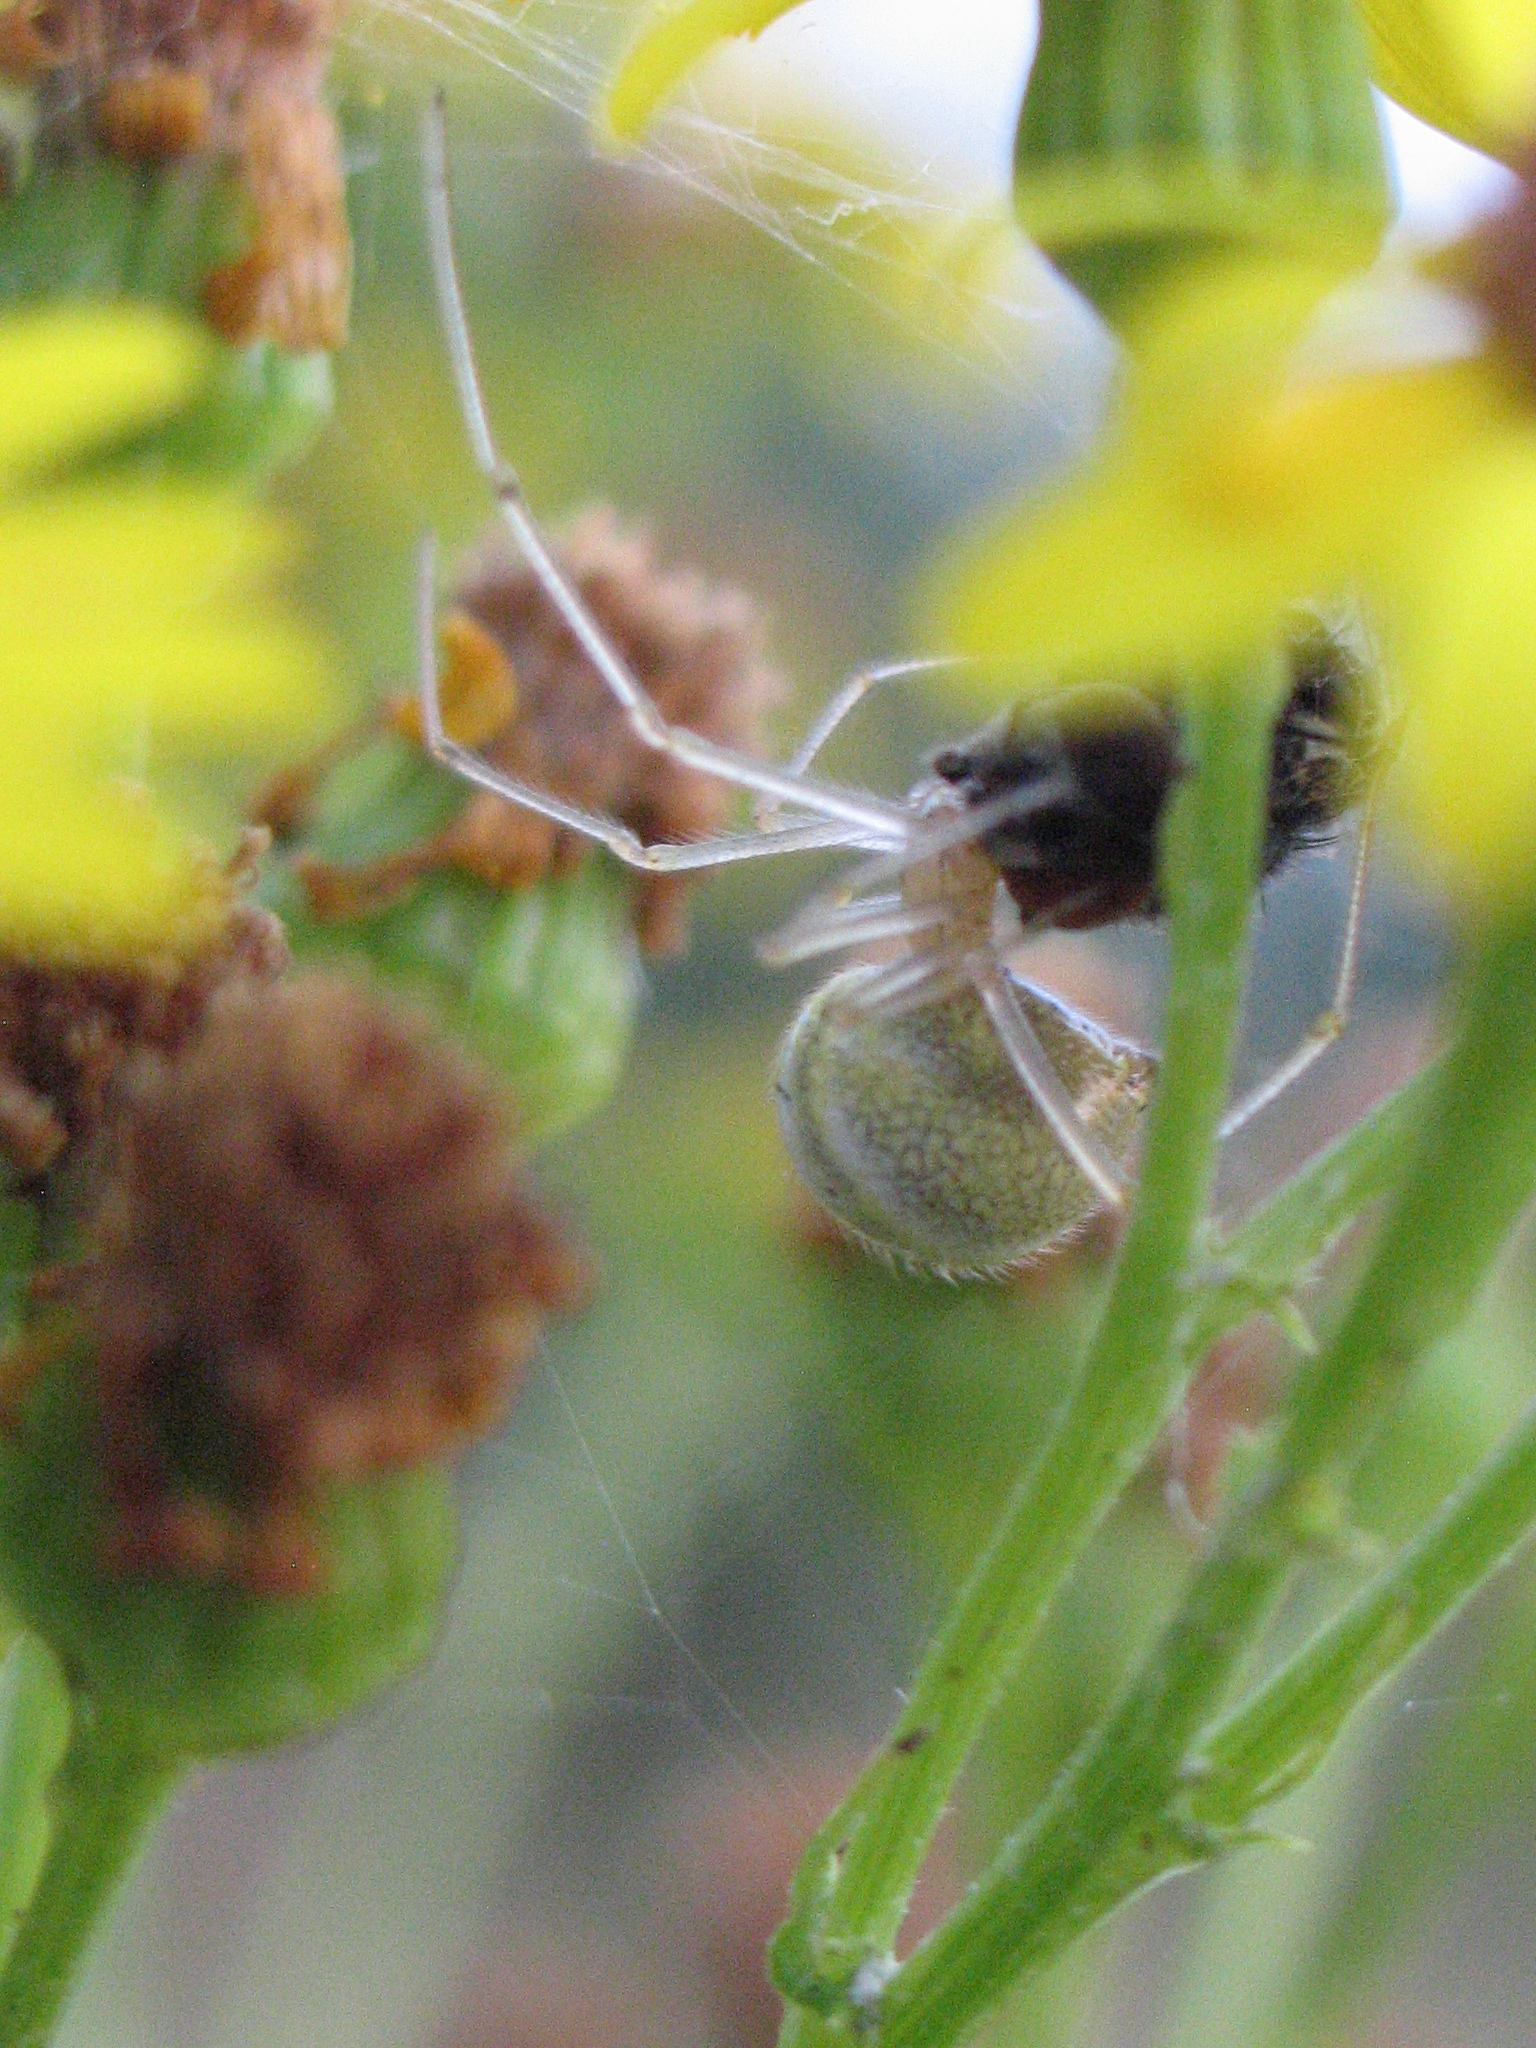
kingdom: Animalia
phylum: Arthropoda
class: Arachnida
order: Araneae
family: Theridiidae
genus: Enoplognatha
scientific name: Enoplognatha ovata
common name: Common candy-striped spider
